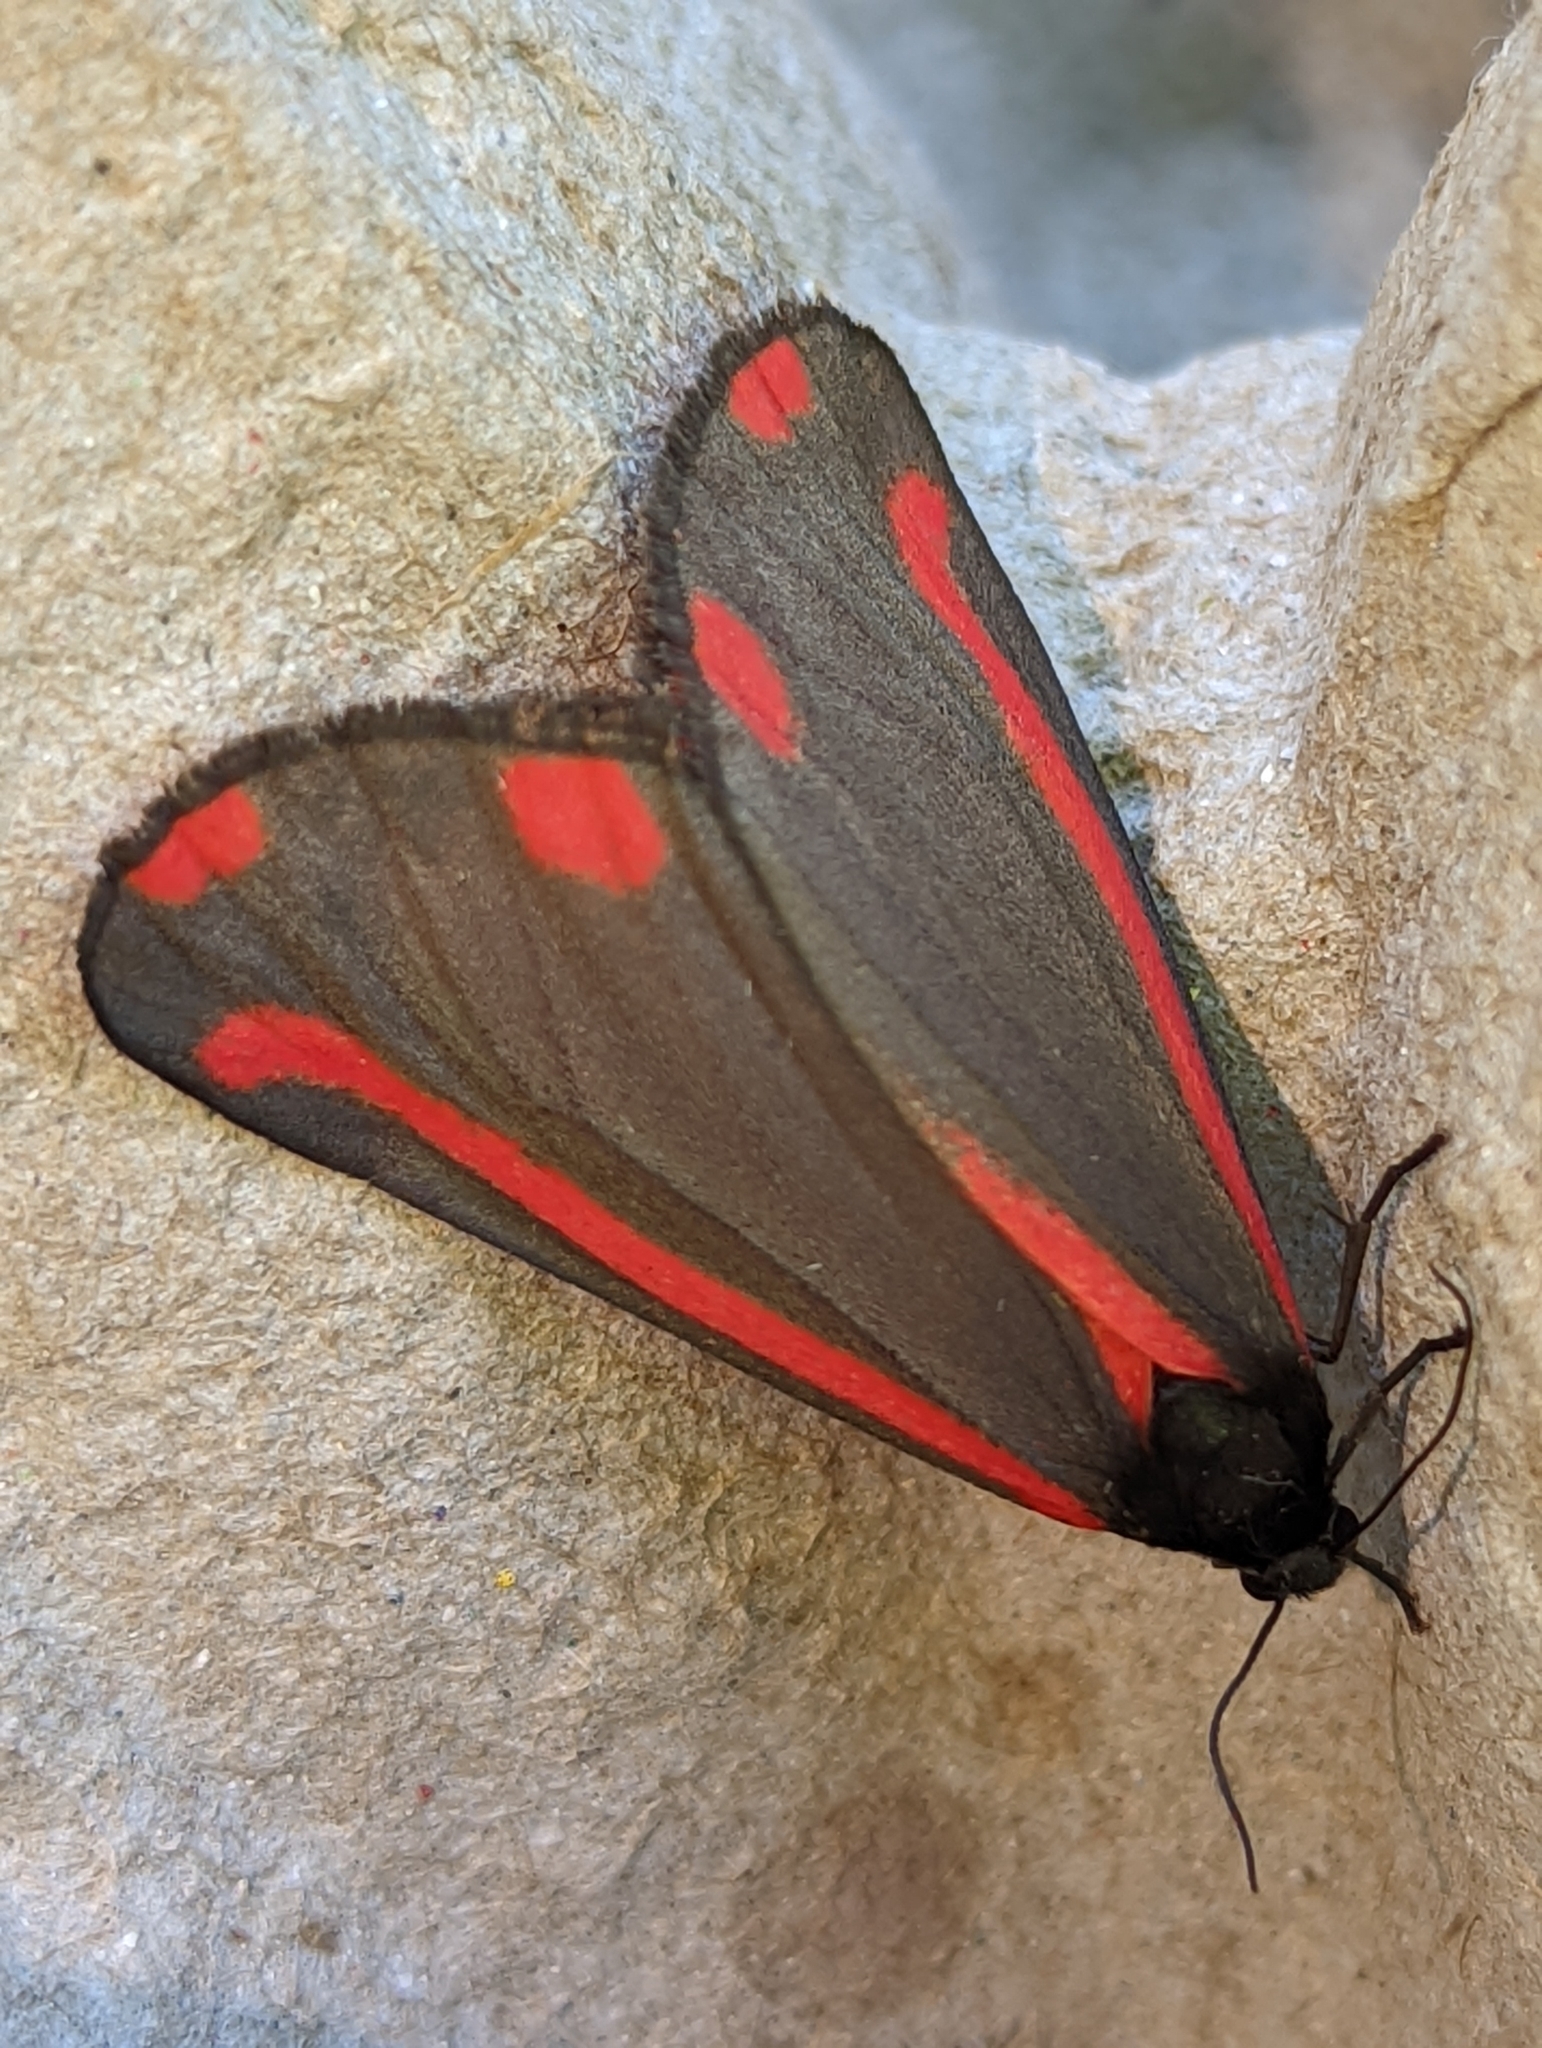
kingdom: Animalia
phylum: Arthropoda
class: Insecta
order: Lepidoptera
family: Erebidae
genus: Tyria
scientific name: Tyria jacobaeae
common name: Cinnabar
